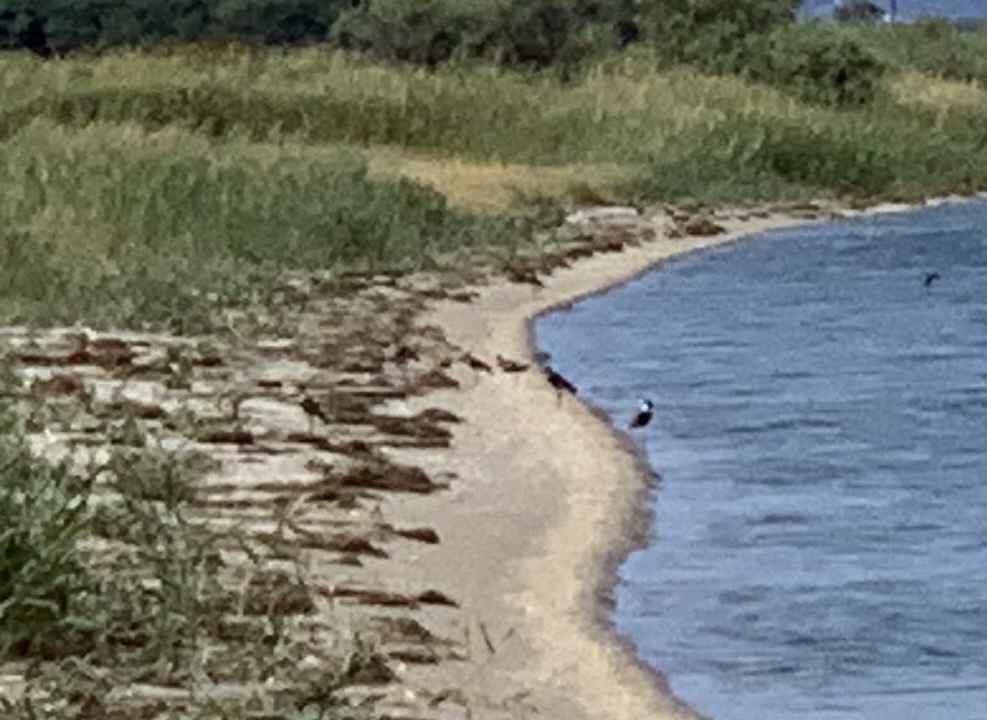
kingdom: Animalia
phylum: Chordata
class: Aves
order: Charadriiformes
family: Charadriidae
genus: Vanellus
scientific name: Vanellus spinosus
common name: Spur-winged lapwing
